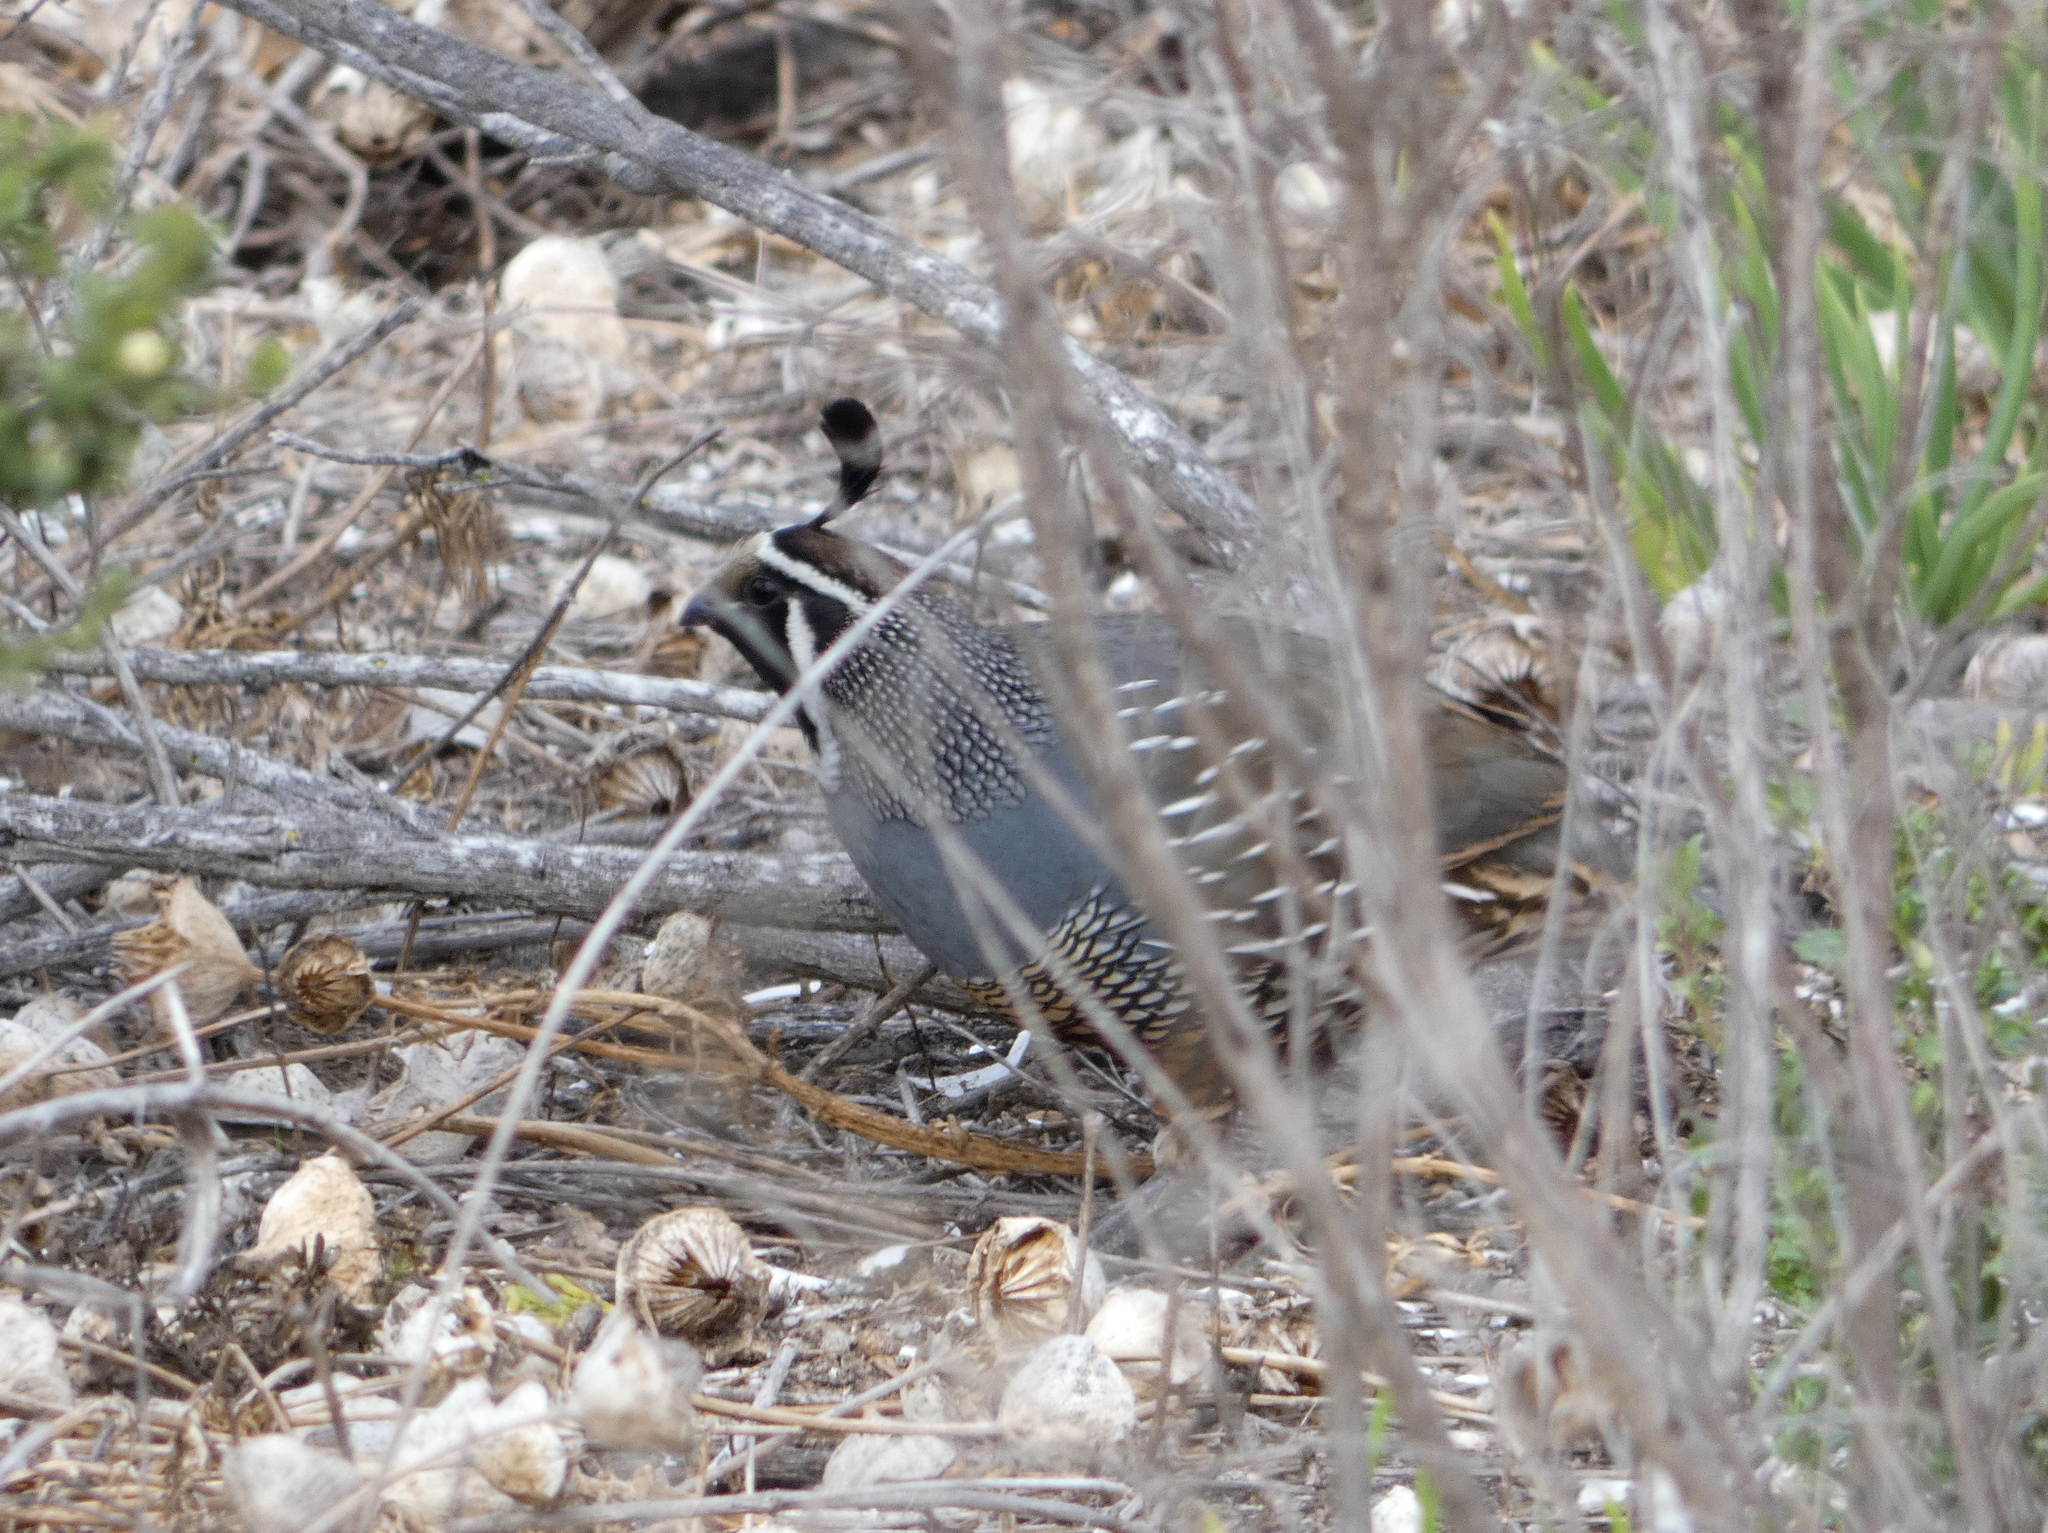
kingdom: Animalia
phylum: Chordata
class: Aves
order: Galliformes
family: Odontophoridae
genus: Callipepla
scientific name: Callipepla californica
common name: California quail
